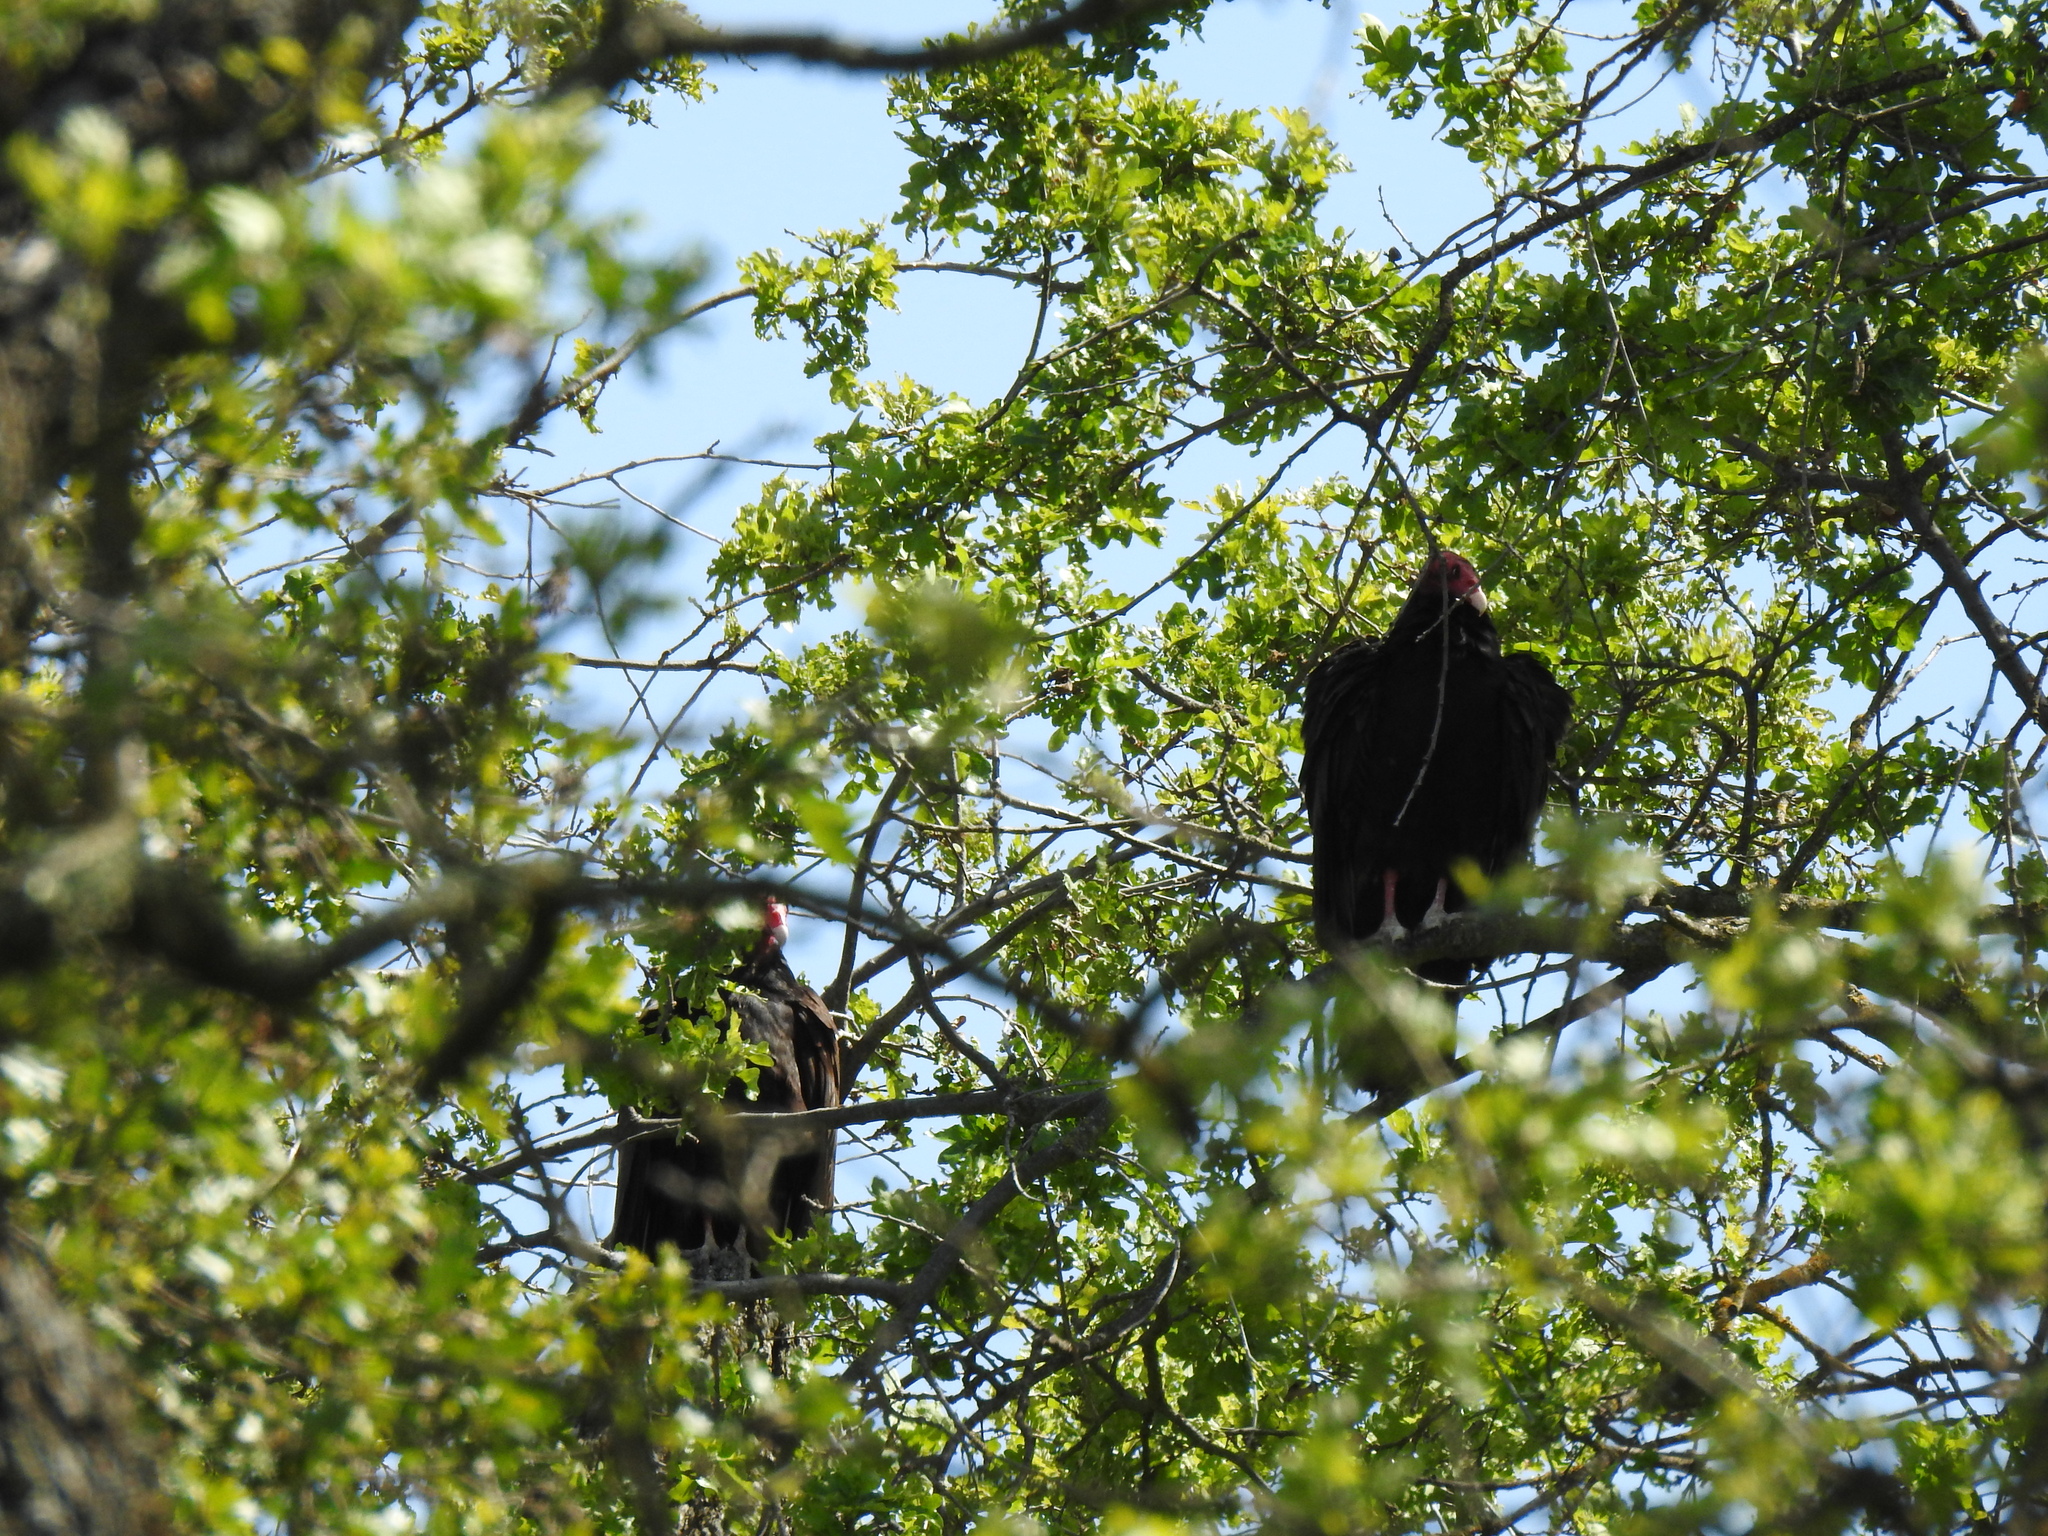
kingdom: Animalia
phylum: Chordata
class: Aves
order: Accipitriformes
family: Cathartidae
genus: Cathartes
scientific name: Cathartes aura
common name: Turkey vulture
